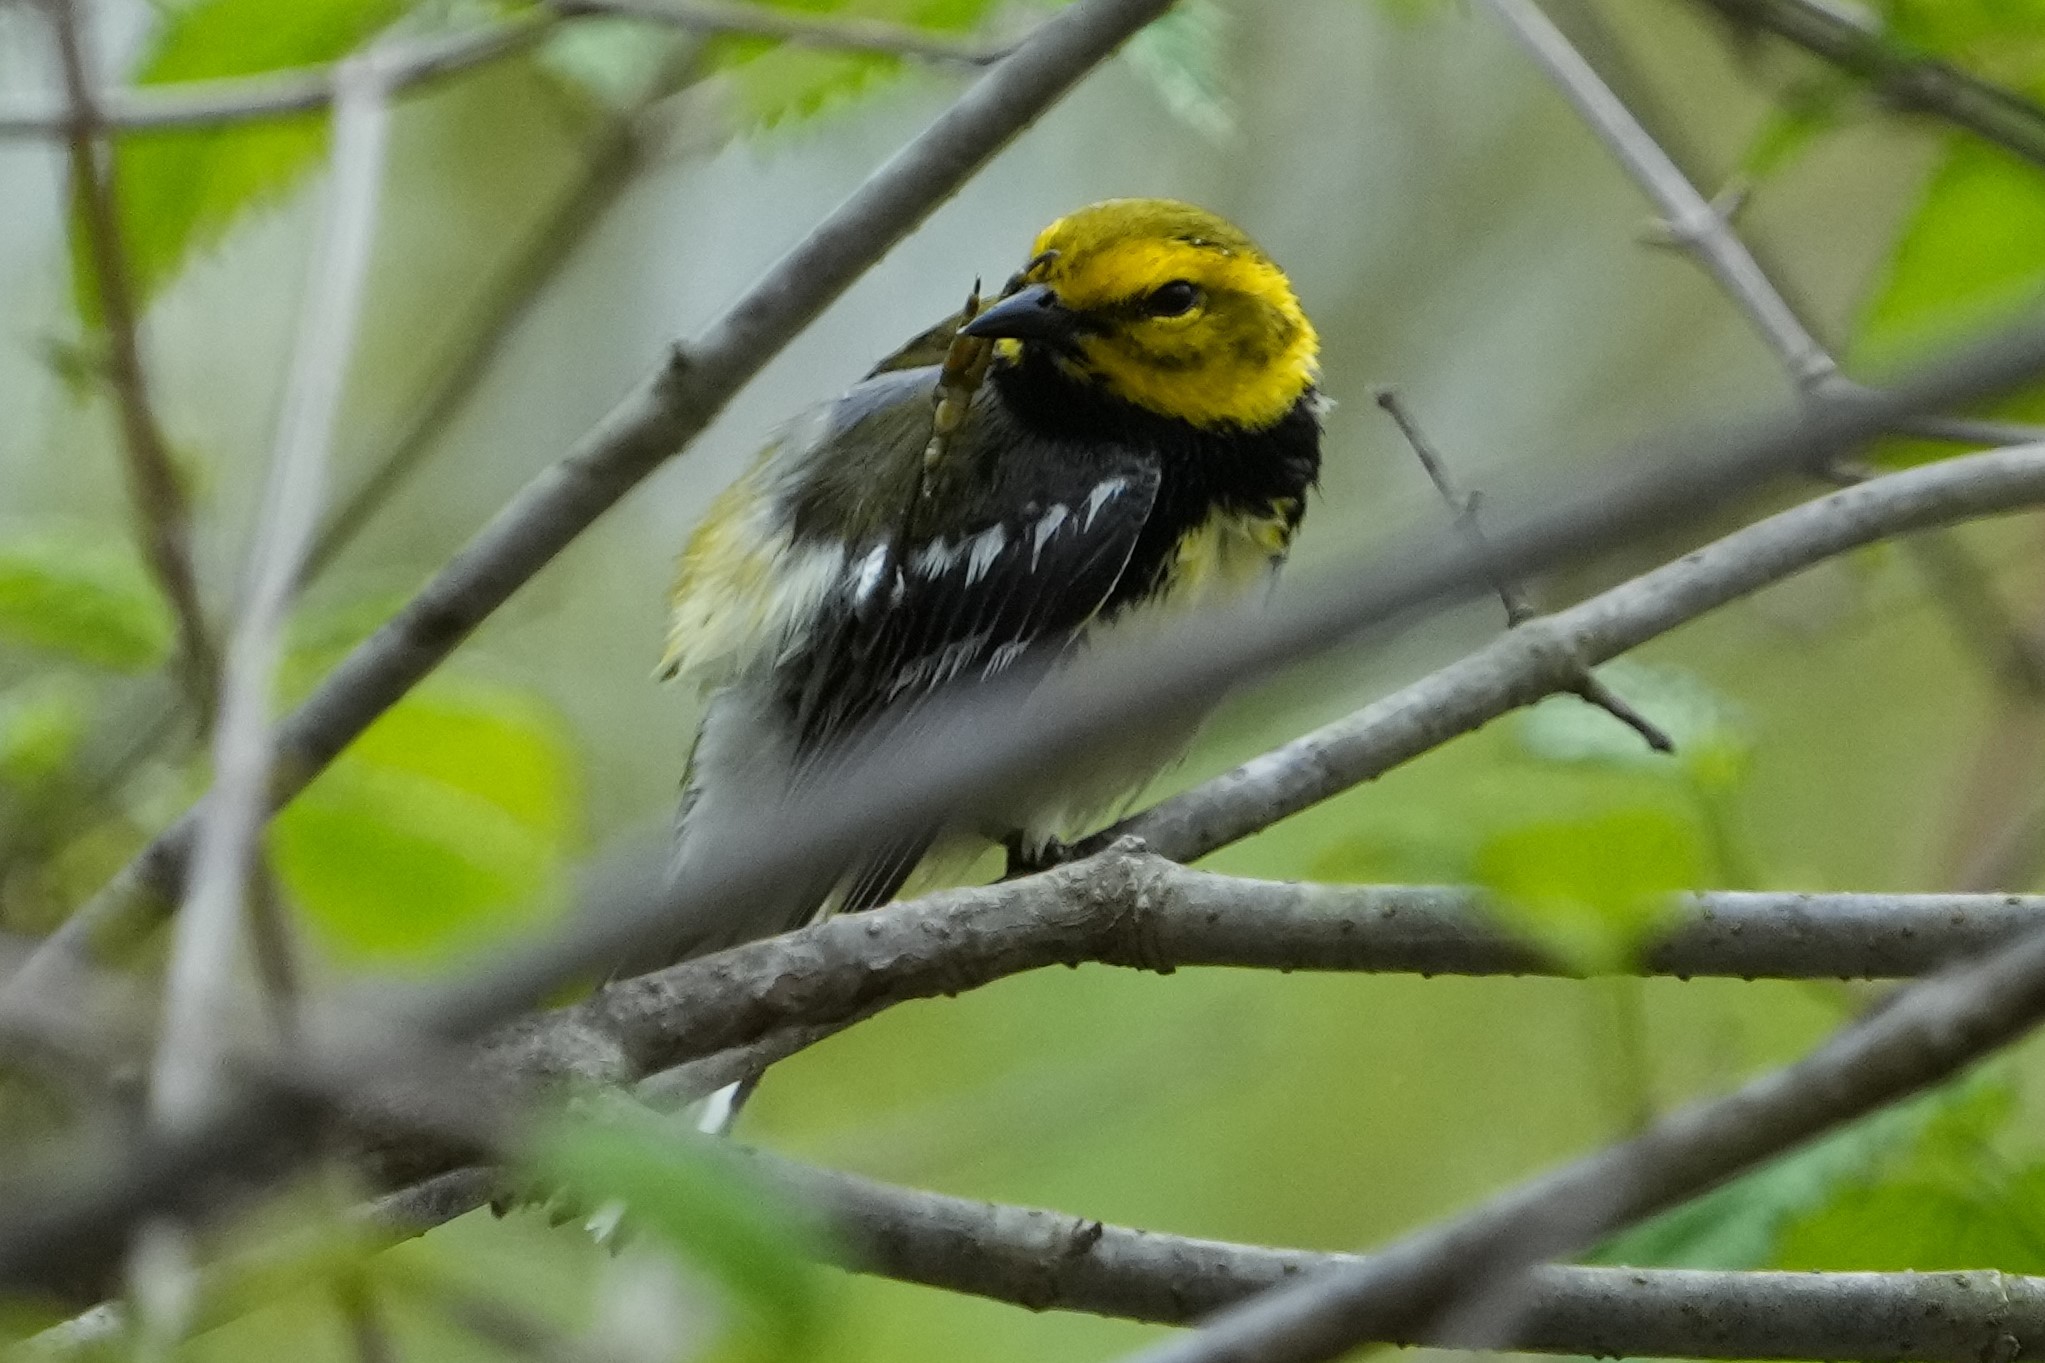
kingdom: Animalia
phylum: Chordata
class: Aves
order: Passeriformes
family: Parulidae
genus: Setophaga
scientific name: Setophaga virens
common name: Black-throated green warbler
